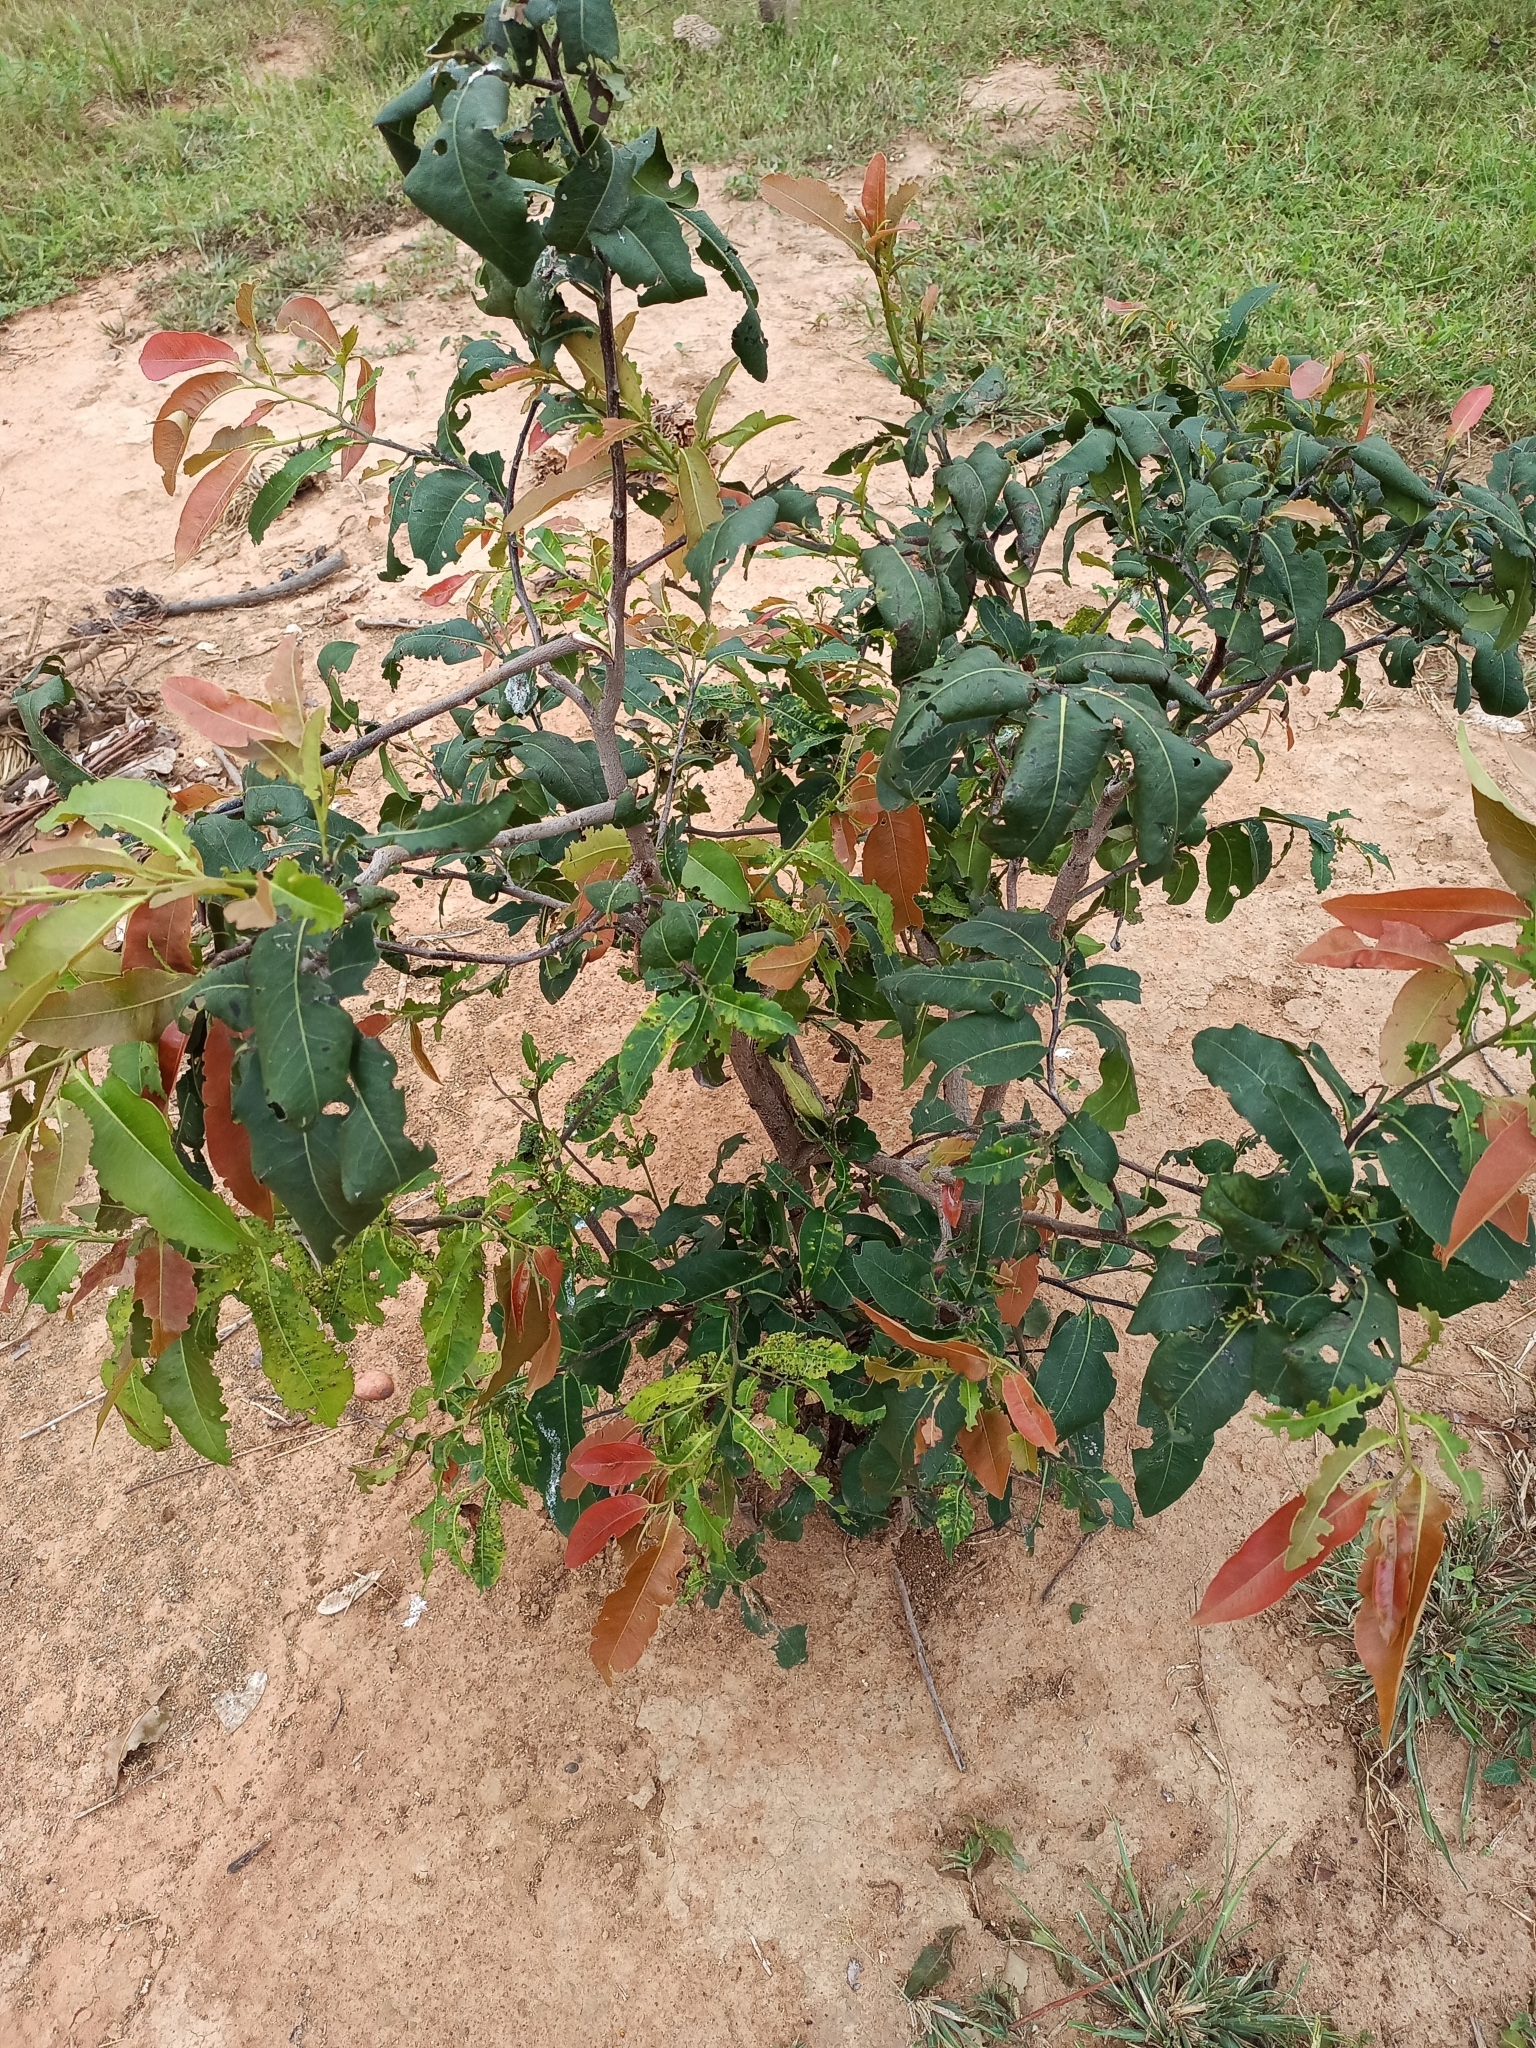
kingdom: Plantae
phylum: Tracheophyta
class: Magnoliopsida
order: Ericales
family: Ebenaceae
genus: Diospyros
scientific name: Diospyros mespiliformis
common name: Ebony diospyros
